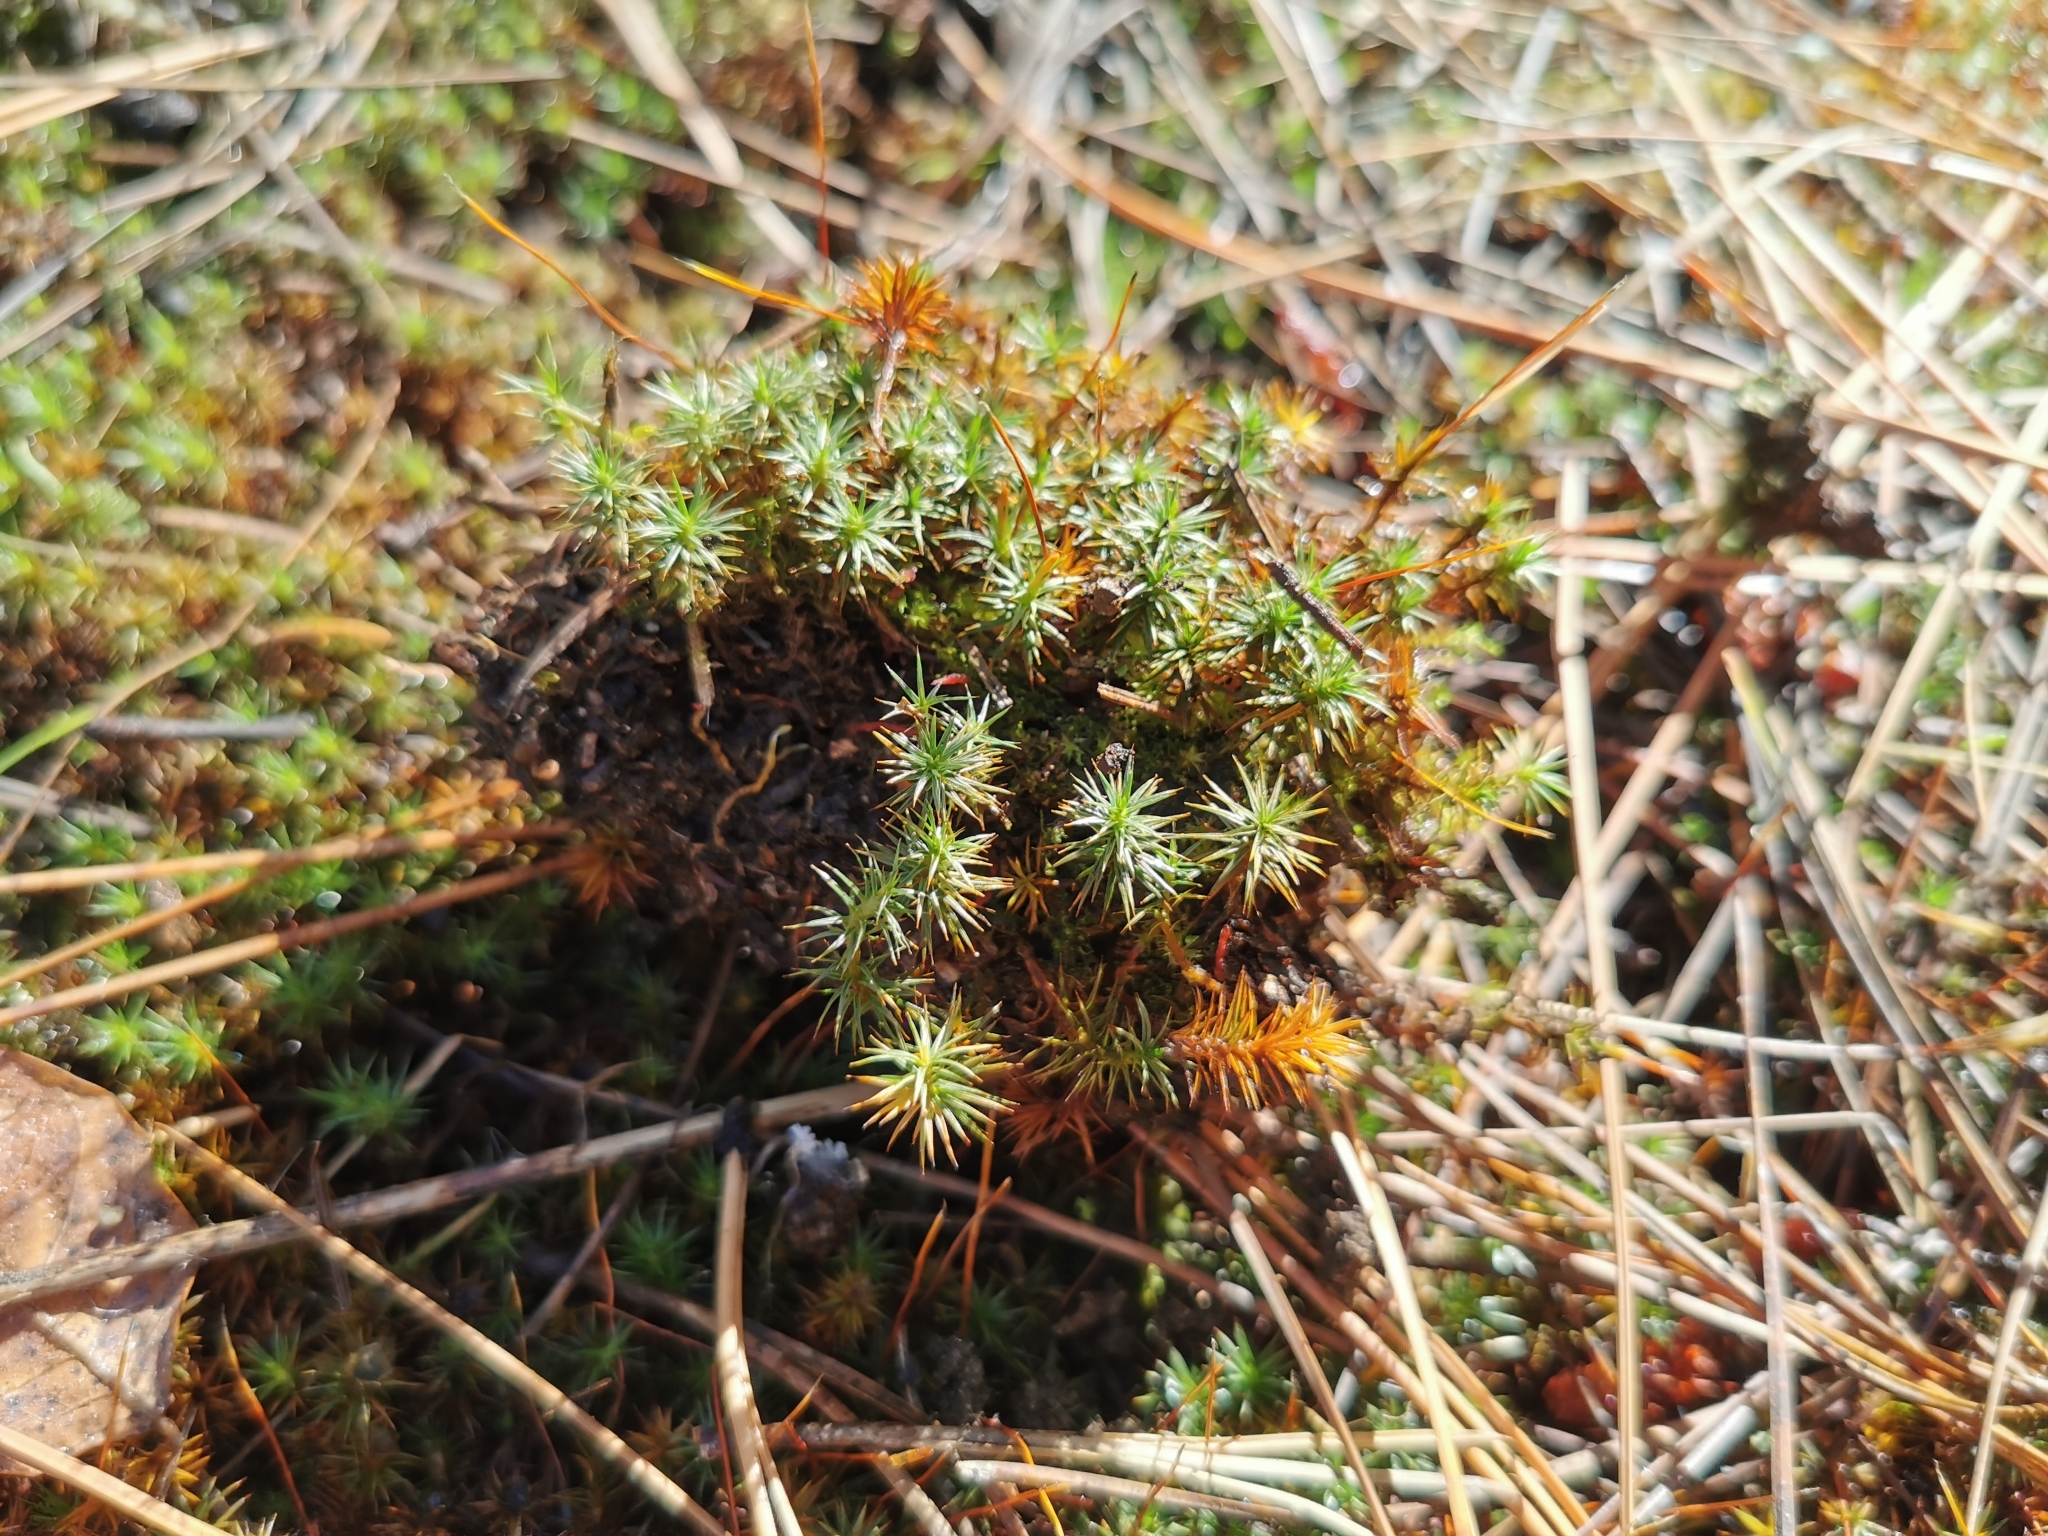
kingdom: Plantae
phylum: Bryophyta
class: Polytrichopsida
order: Polytrichales
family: Polytrichaceae
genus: Polytrichum
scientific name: Polytrichum juniperinum
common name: Juniper haircap moss
